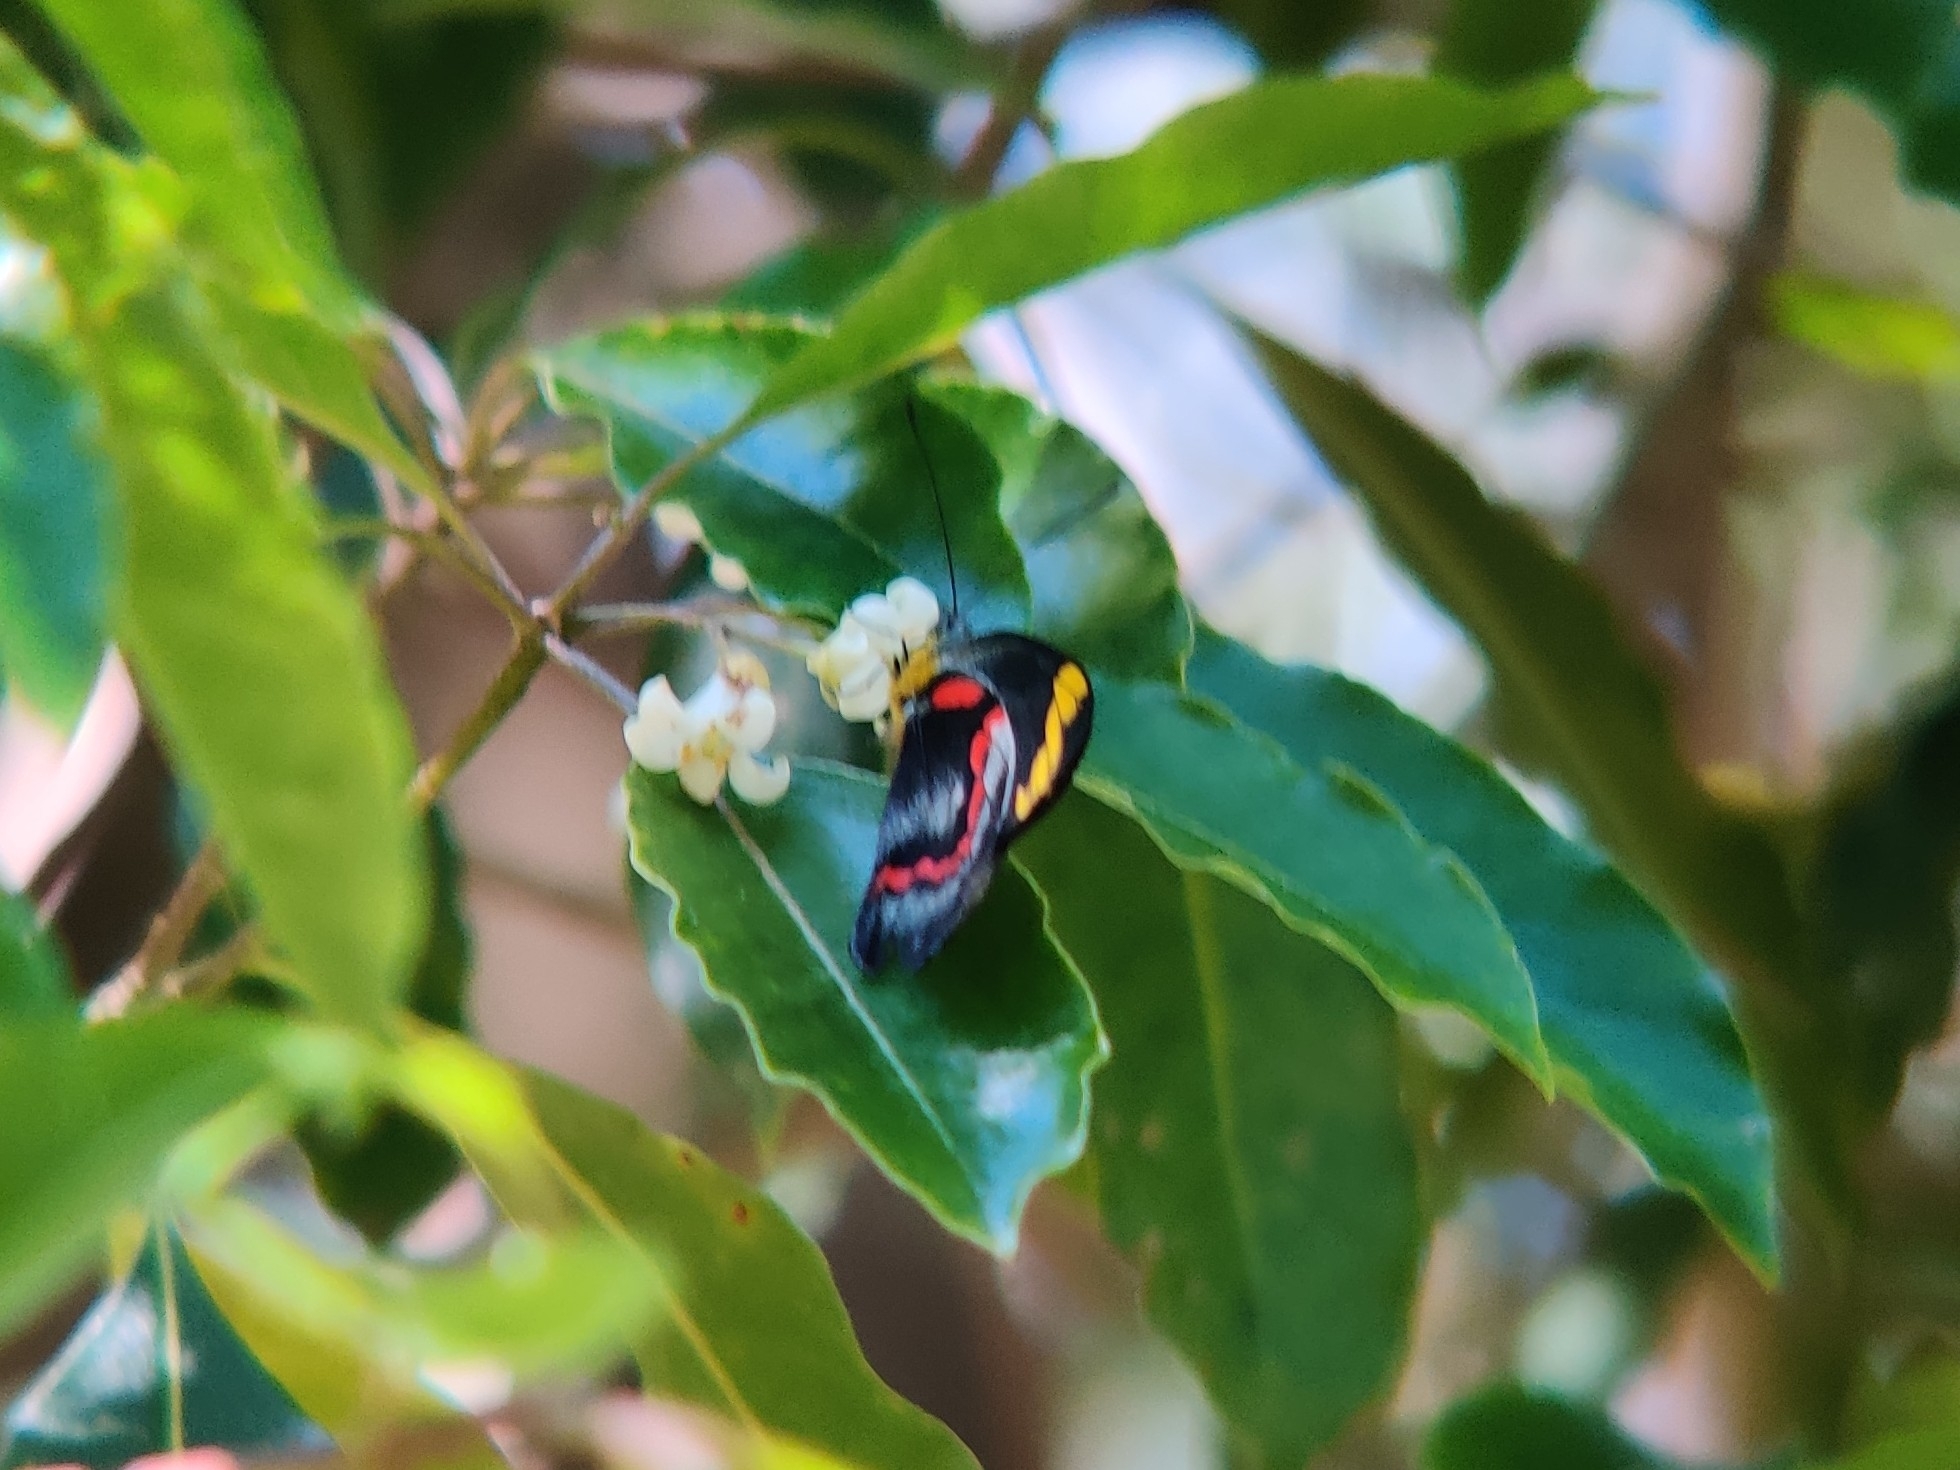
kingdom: Animalia
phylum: Arthropoda
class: Insecta
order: Lepidoptera
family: Pieridae
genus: Delias
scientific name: Delias nigrina
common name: Black jezebel
